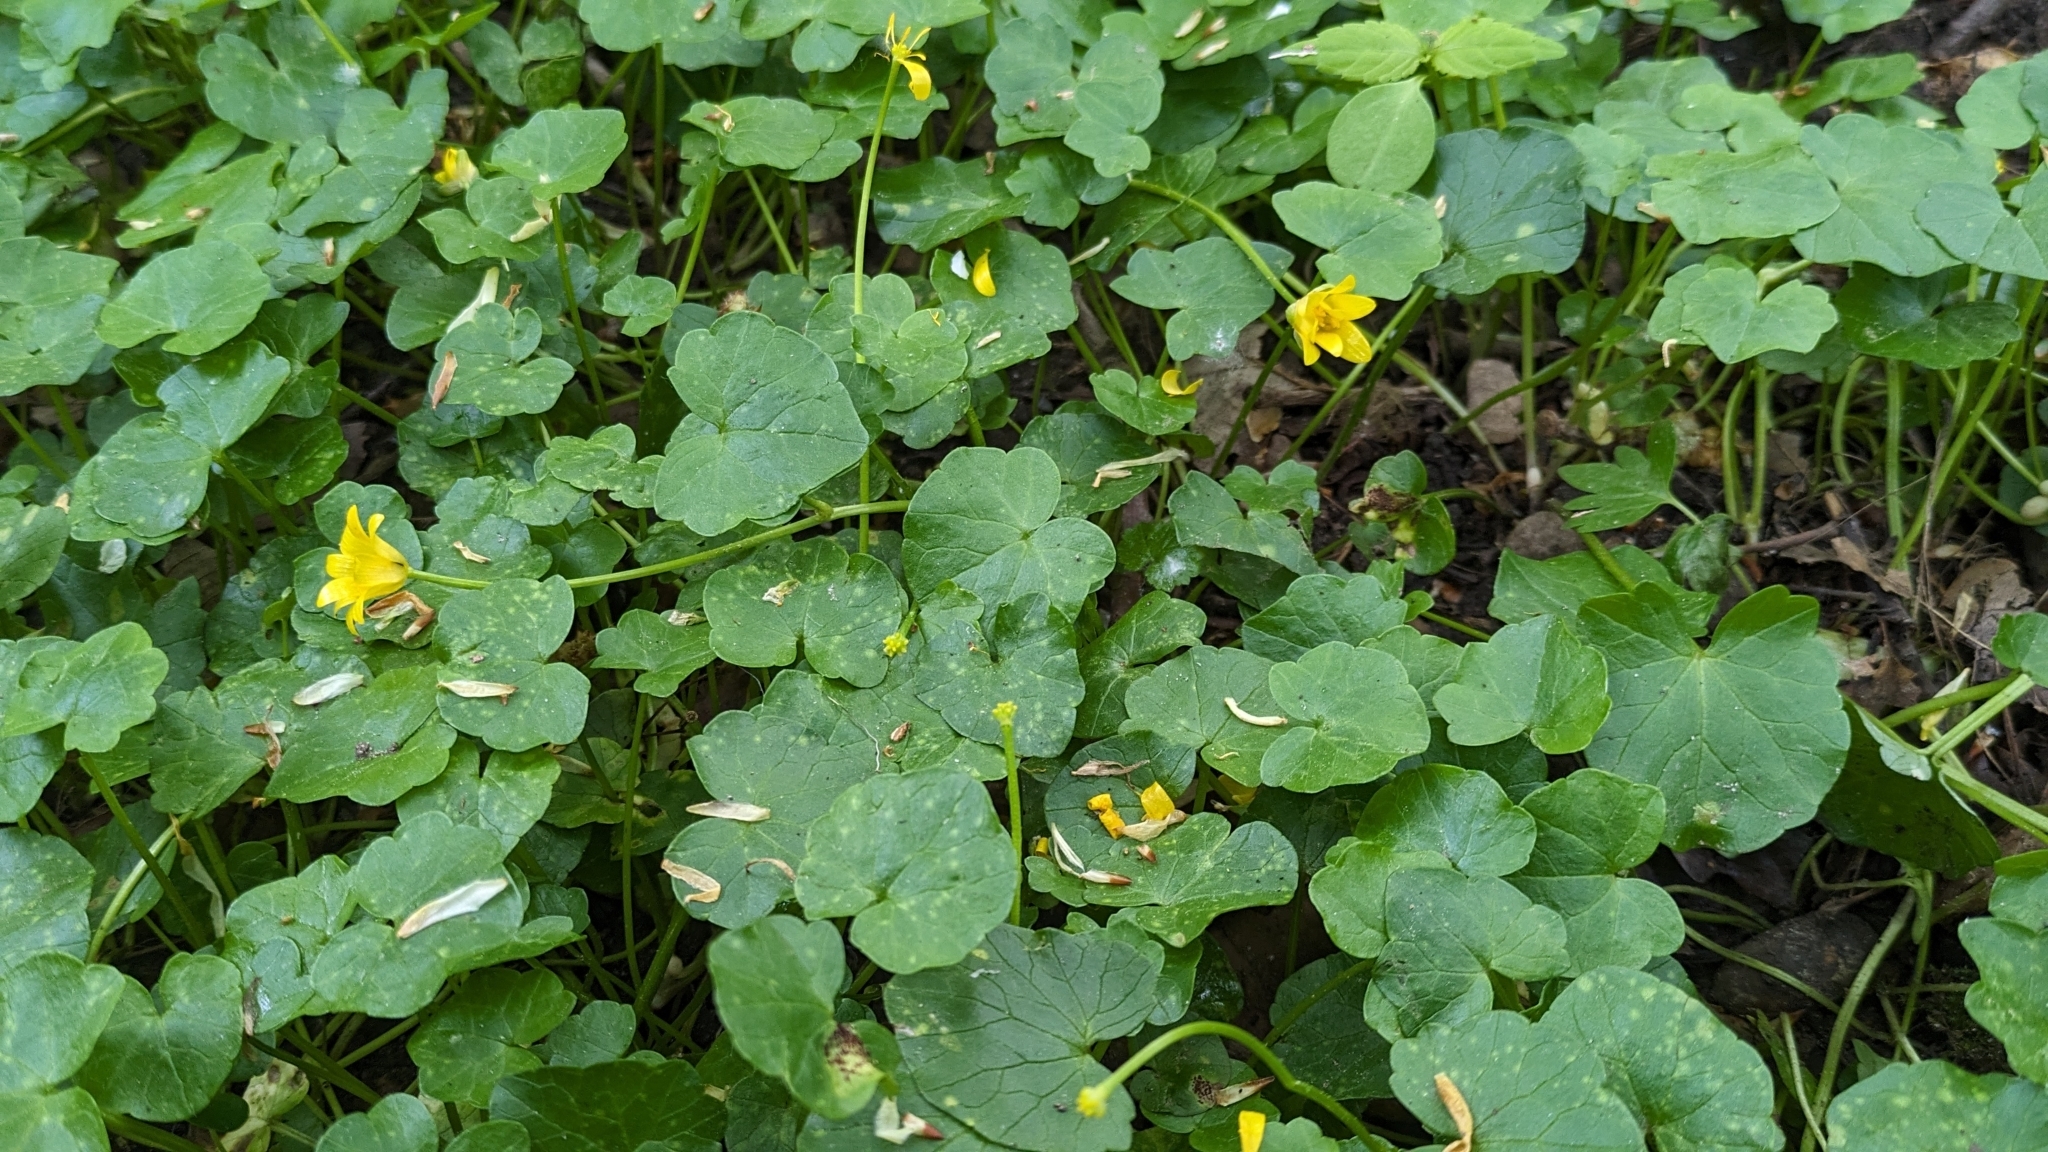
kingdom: Plantae
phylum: Tracheophyta
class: Magnoliopsida
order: Ranunculales
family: Ranunculaceae
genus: Ficaria
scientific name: Ficaria verna
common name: Lesser celandine
